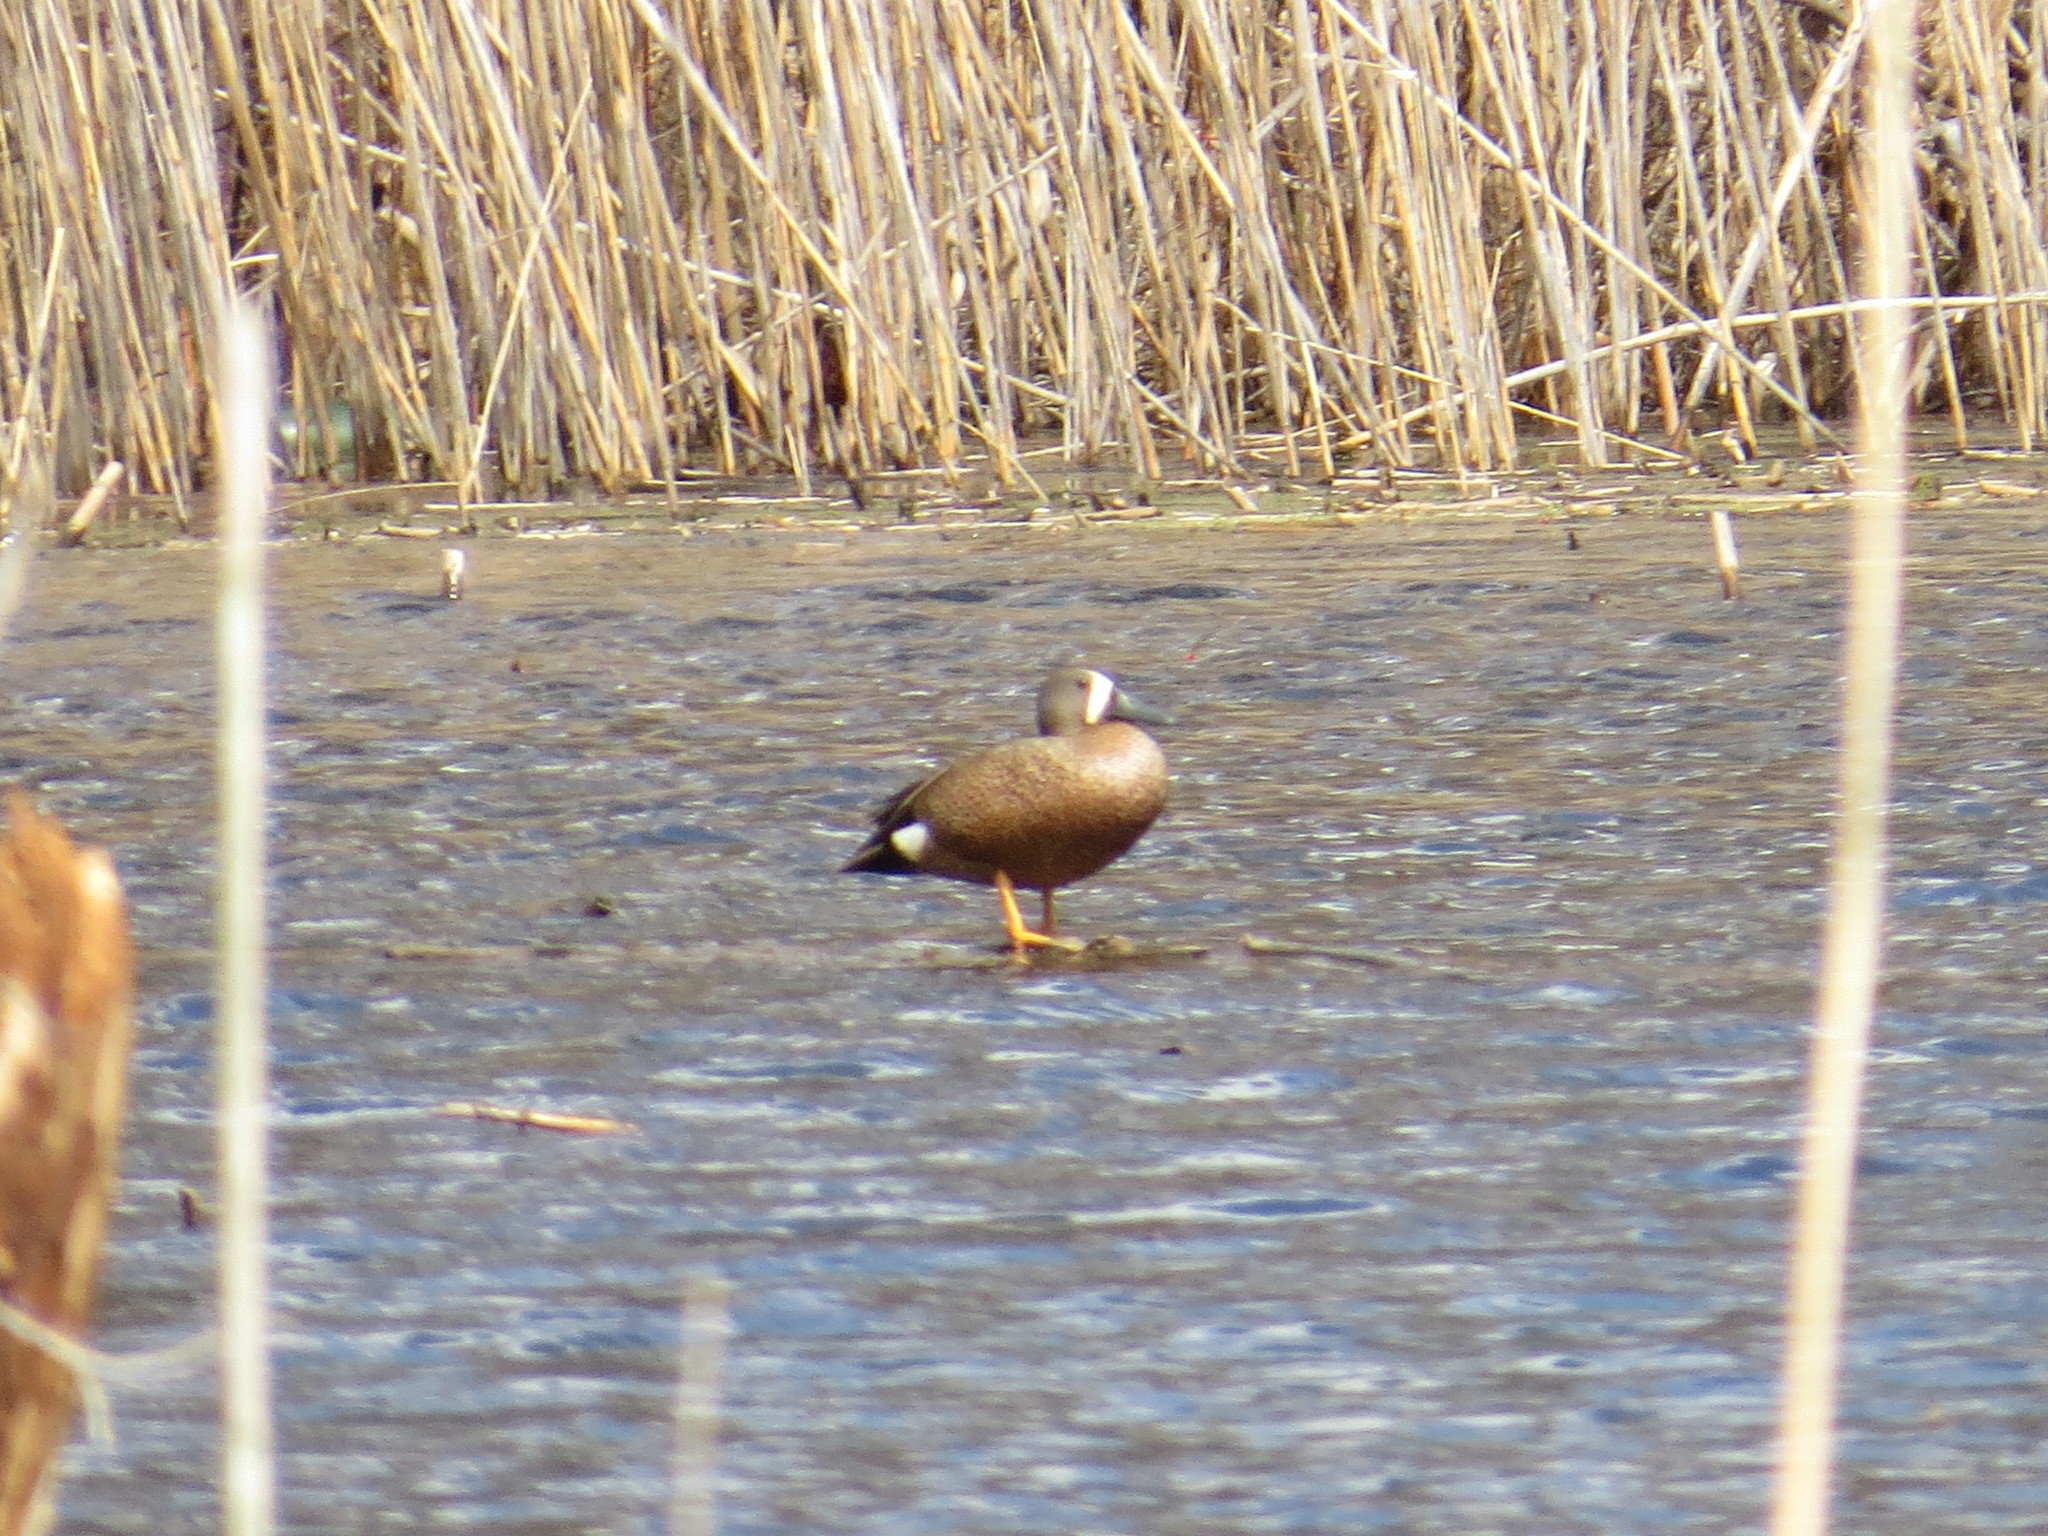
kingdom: Animalia
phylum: Chordata
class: Aves
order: Anseriformes
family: Anatidae
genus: Spatula
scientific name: Spatula discors
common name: Blue-winged teal
